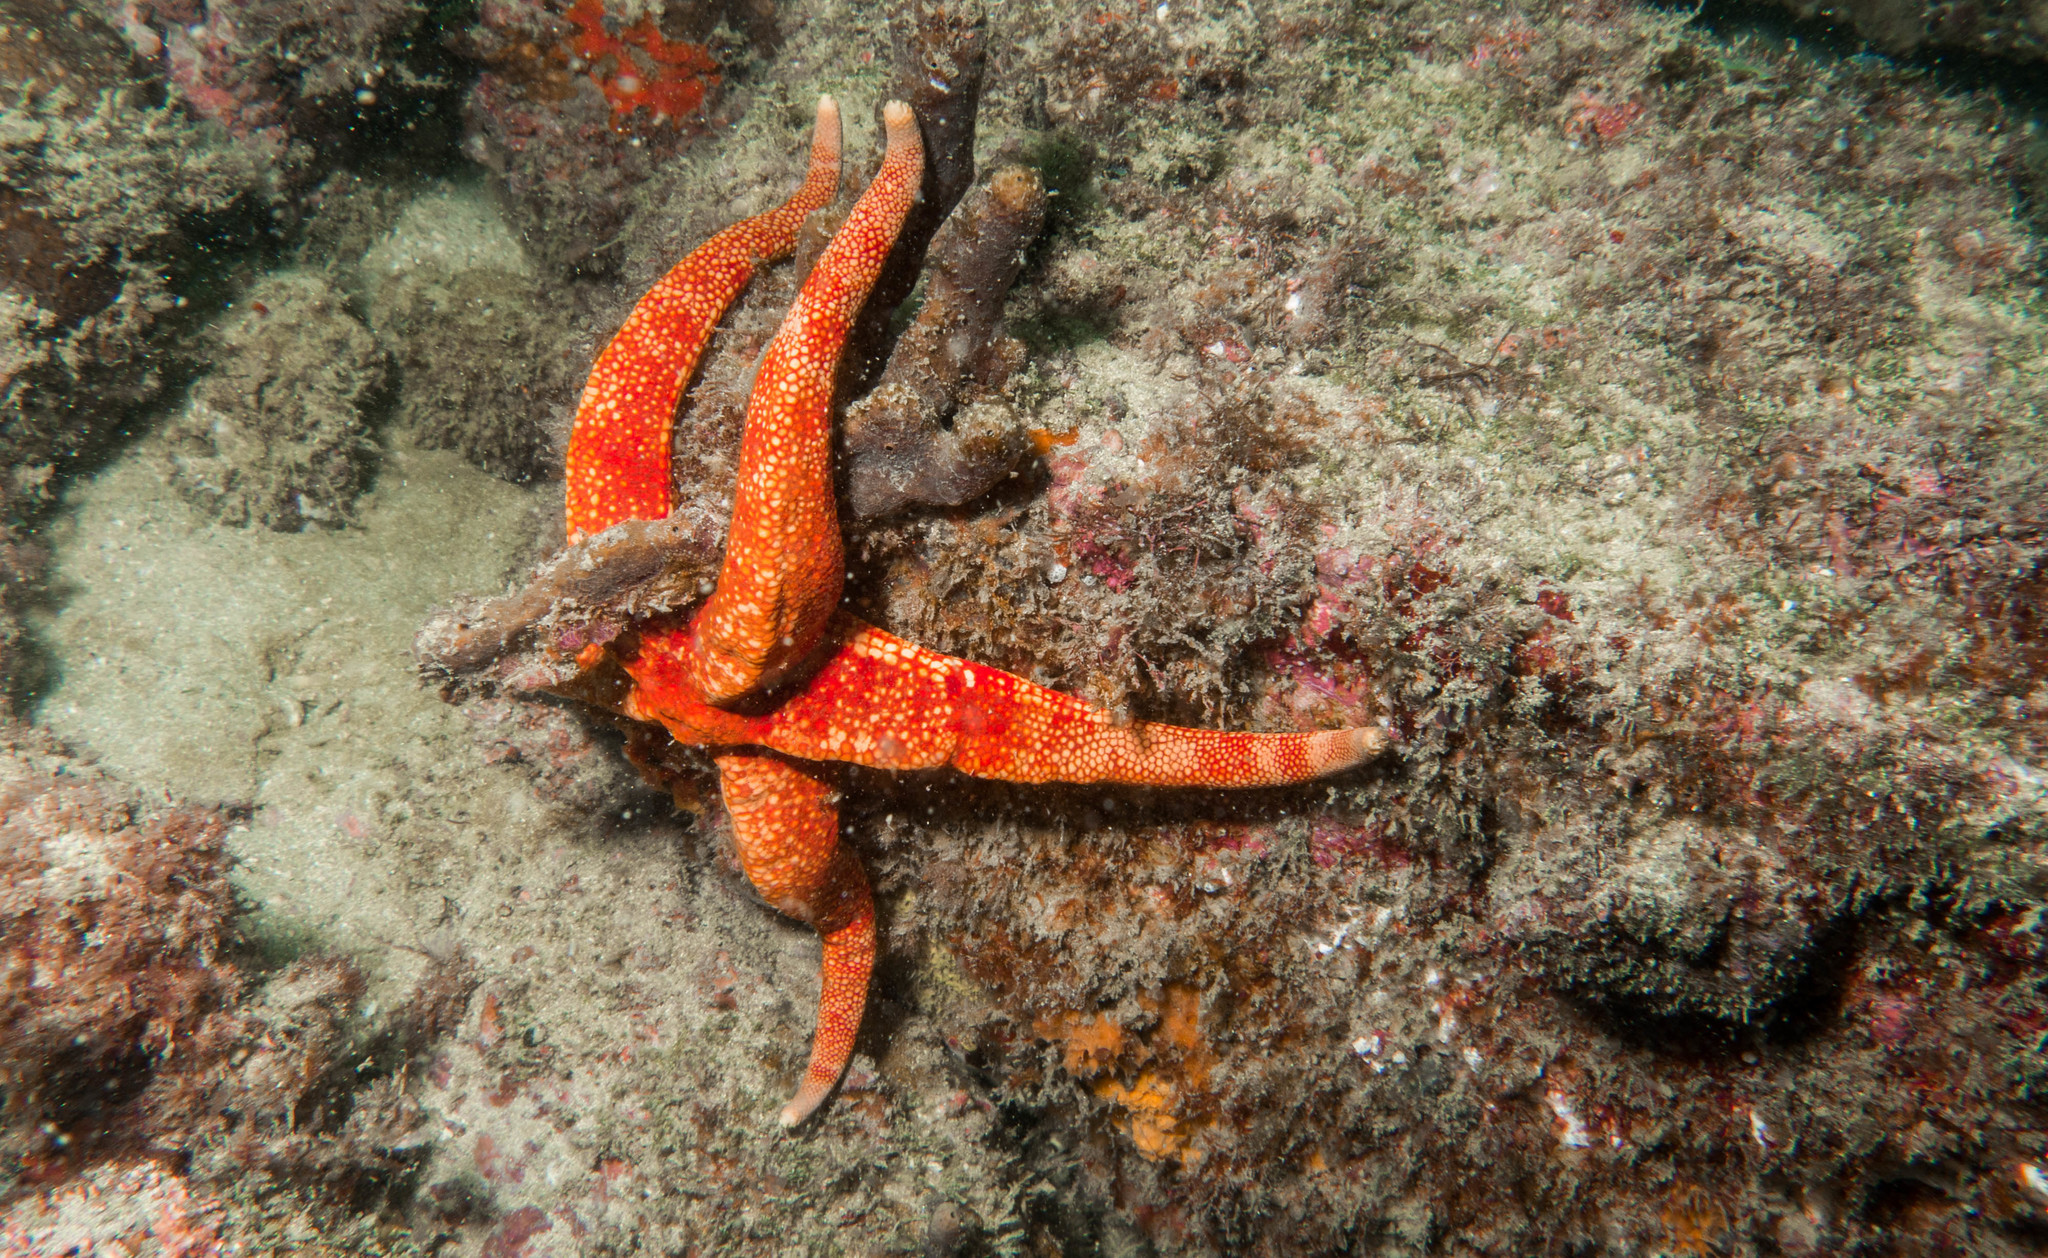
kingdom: Animalia
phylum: Echinodermata
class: Asteroidea
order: Valvatida
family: Ophidiasteridae
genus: Narcissia
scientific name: Narcissia trigonaria
